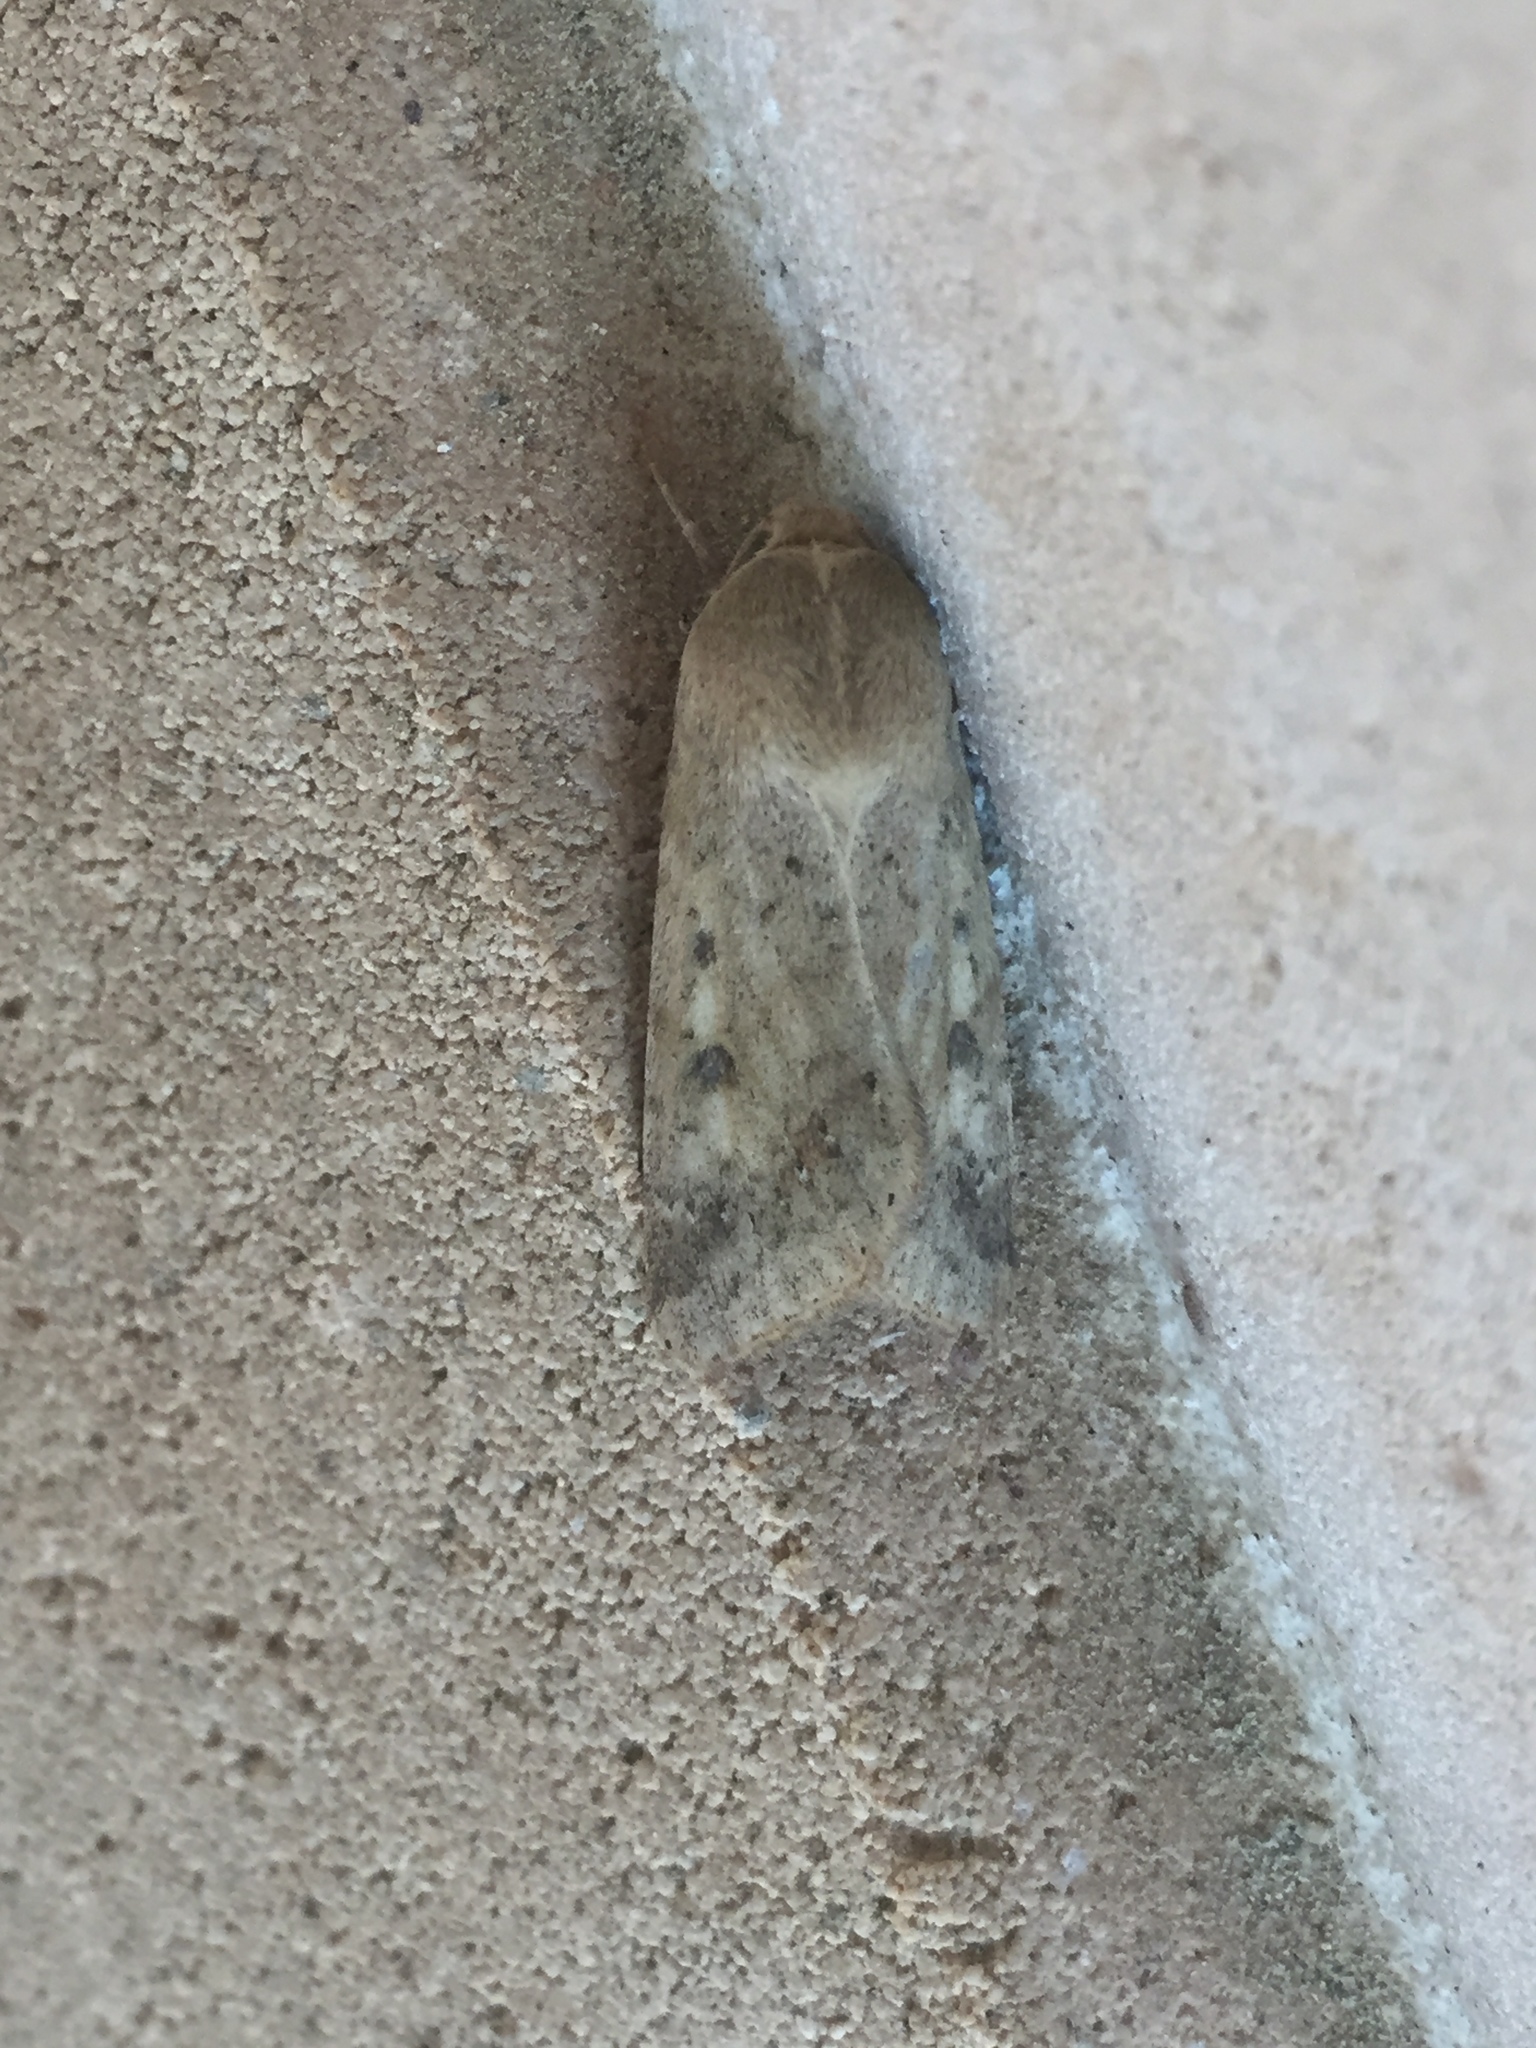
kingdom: Animalia
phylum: Arthropoda
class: Insecta
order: Lepidoptera
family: Noctuidae
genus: Helicoverpa
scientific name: Helicoverpa armigera
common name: Cotton bollworm
